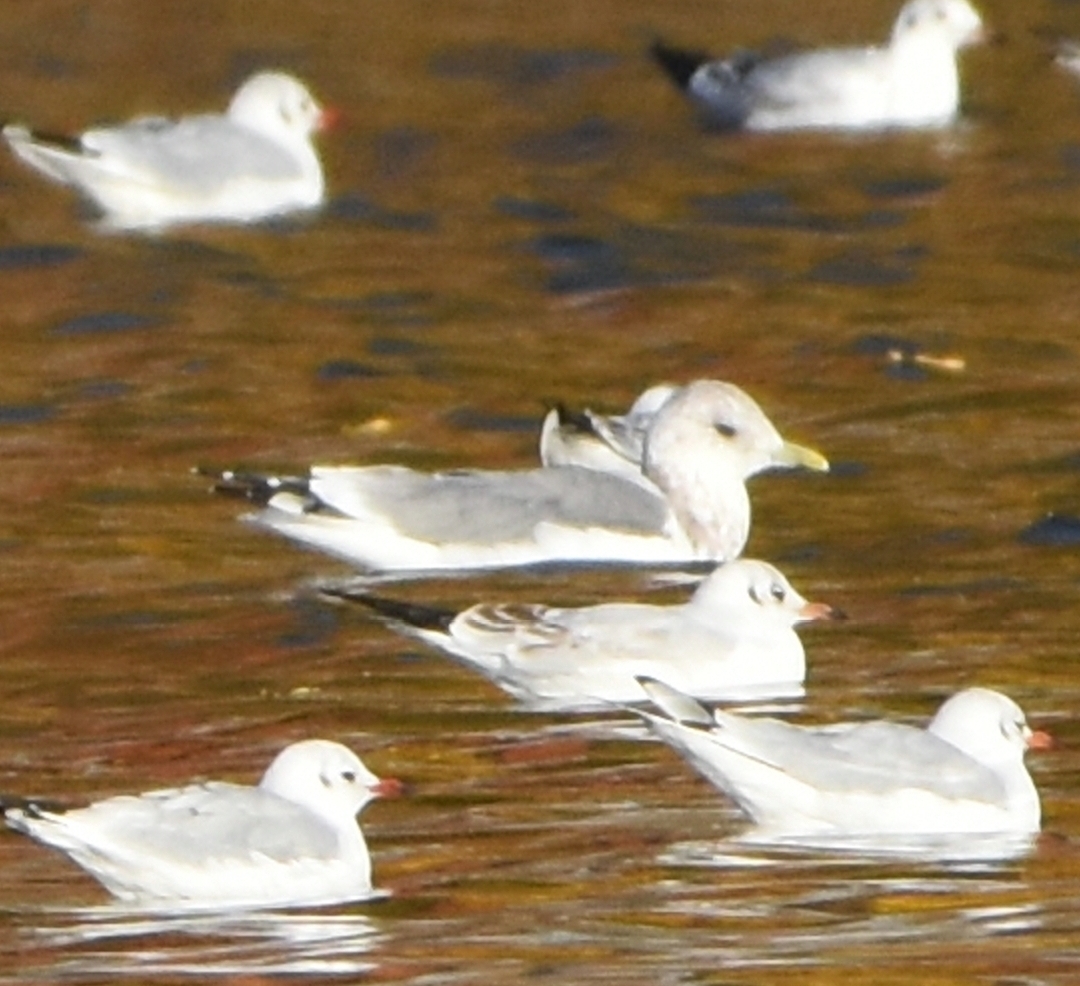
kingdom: Animalia
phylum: Chordata
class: Aves
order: Charadriiformes
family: Laridae
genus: Larus
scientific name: Larus canus
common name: Mew gull
